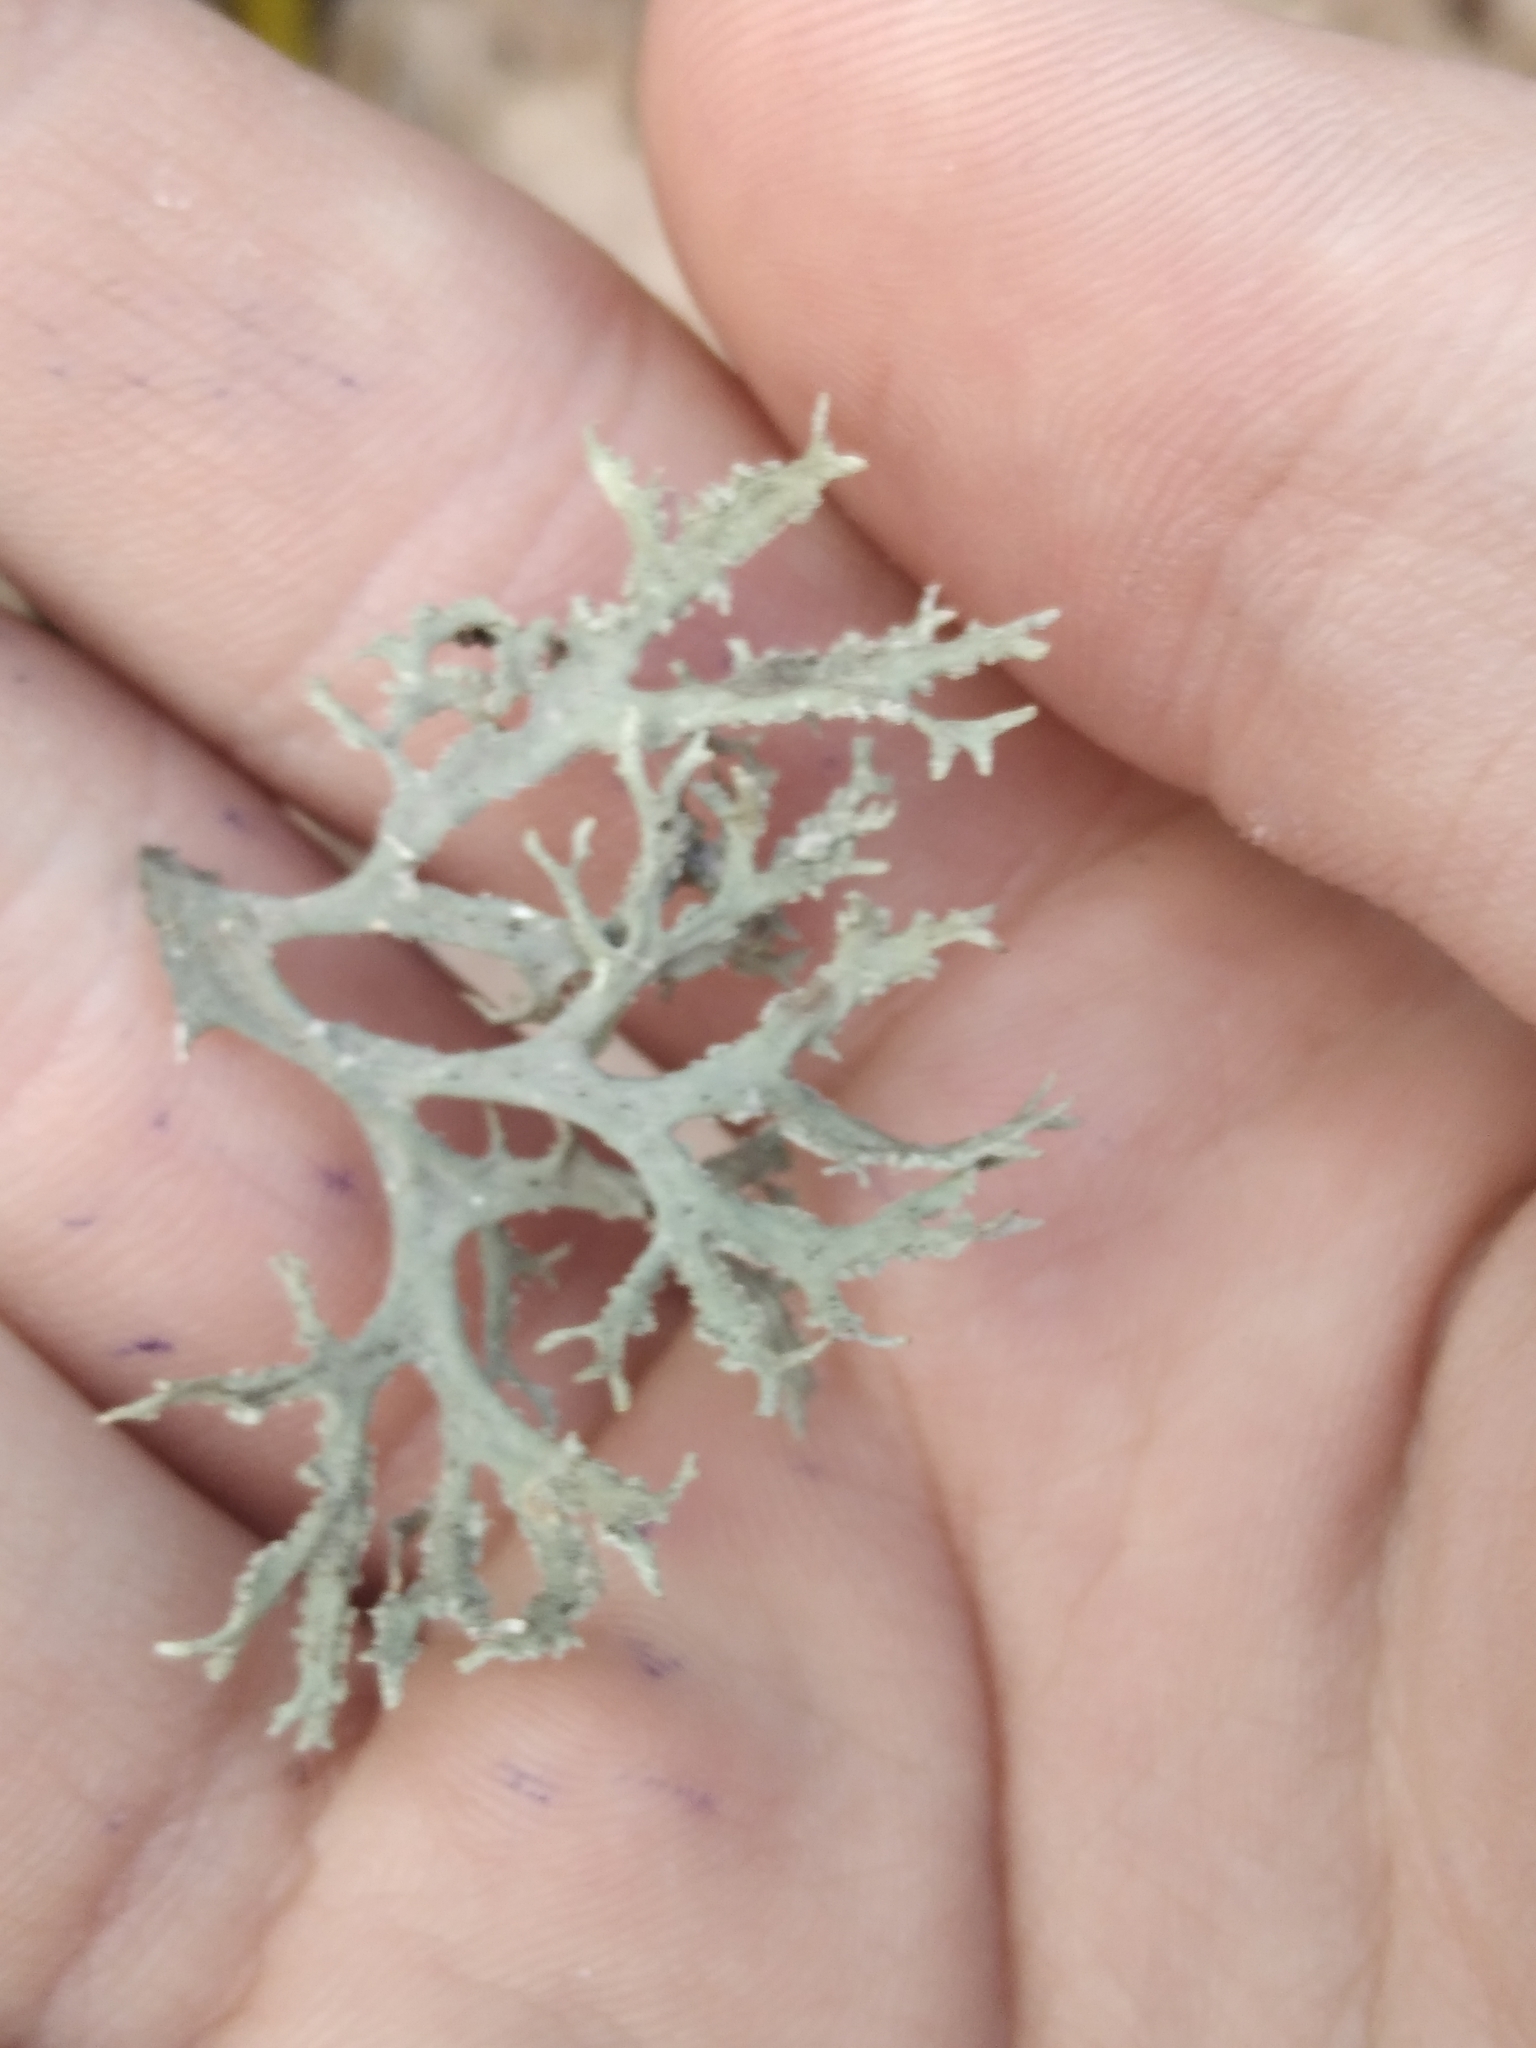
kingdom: Fungi
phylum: Ascomycota
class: Lecanoromycetes
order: Lecanorales
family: Parmeliaceae
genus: Evernia
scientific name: Evernia prunastri
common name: Oak moss
